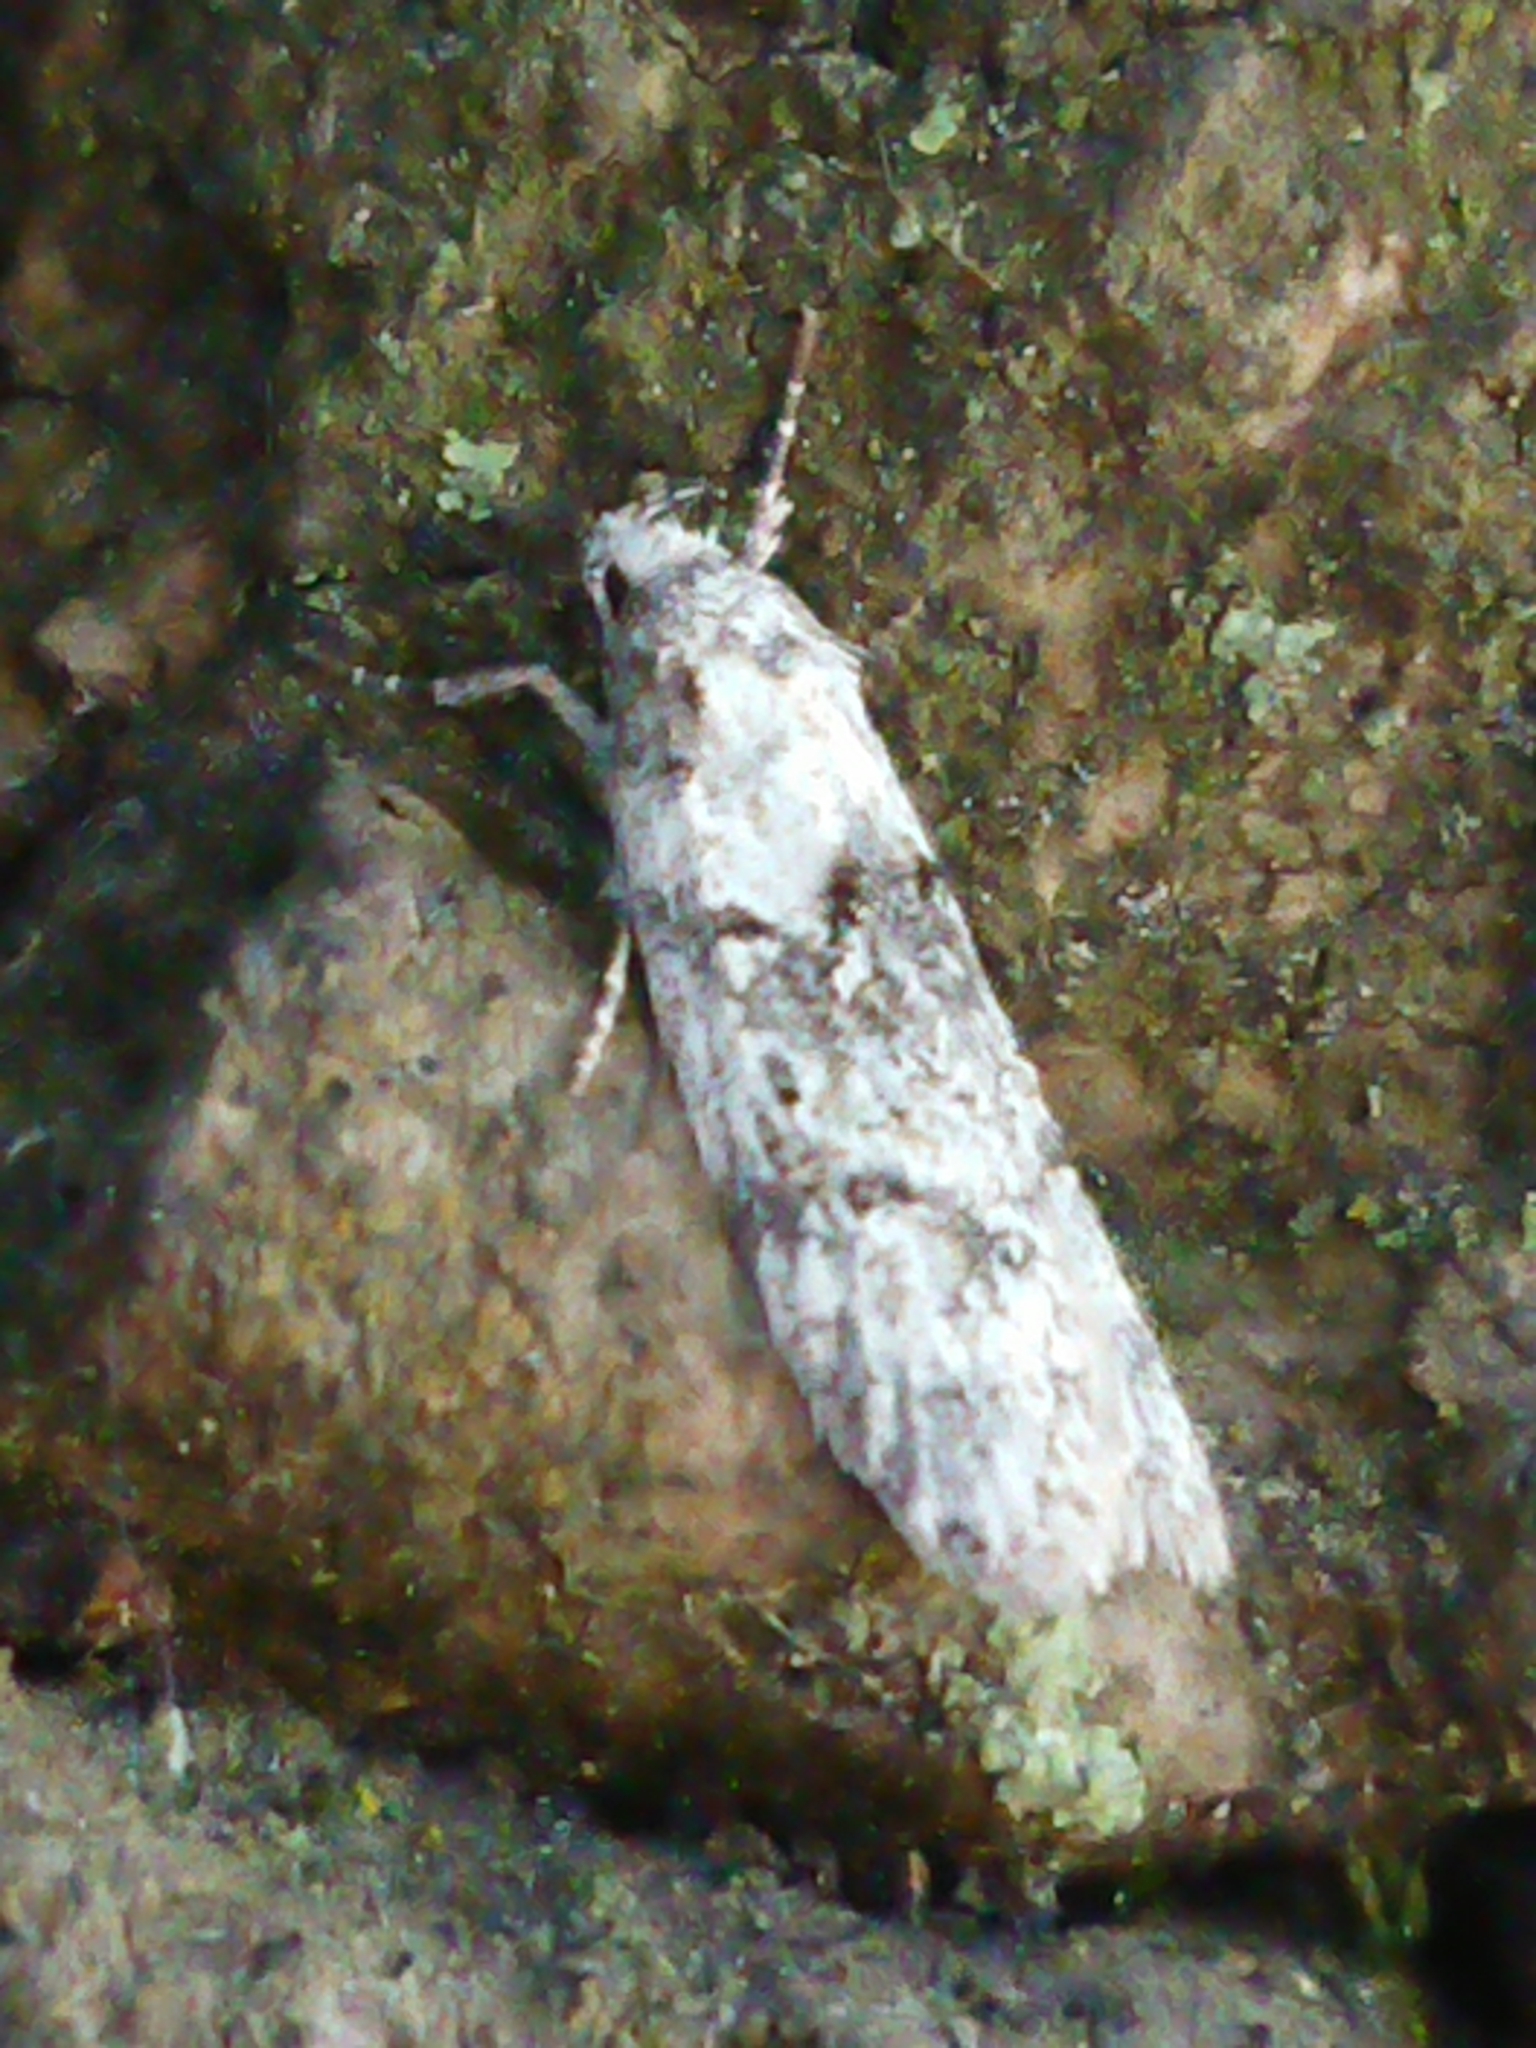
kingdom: Animalia
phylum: Arthropoda
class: Insecta
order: Lepidoptera
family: Oecophoridae
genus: Izatha
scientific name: Izatha convulsella
